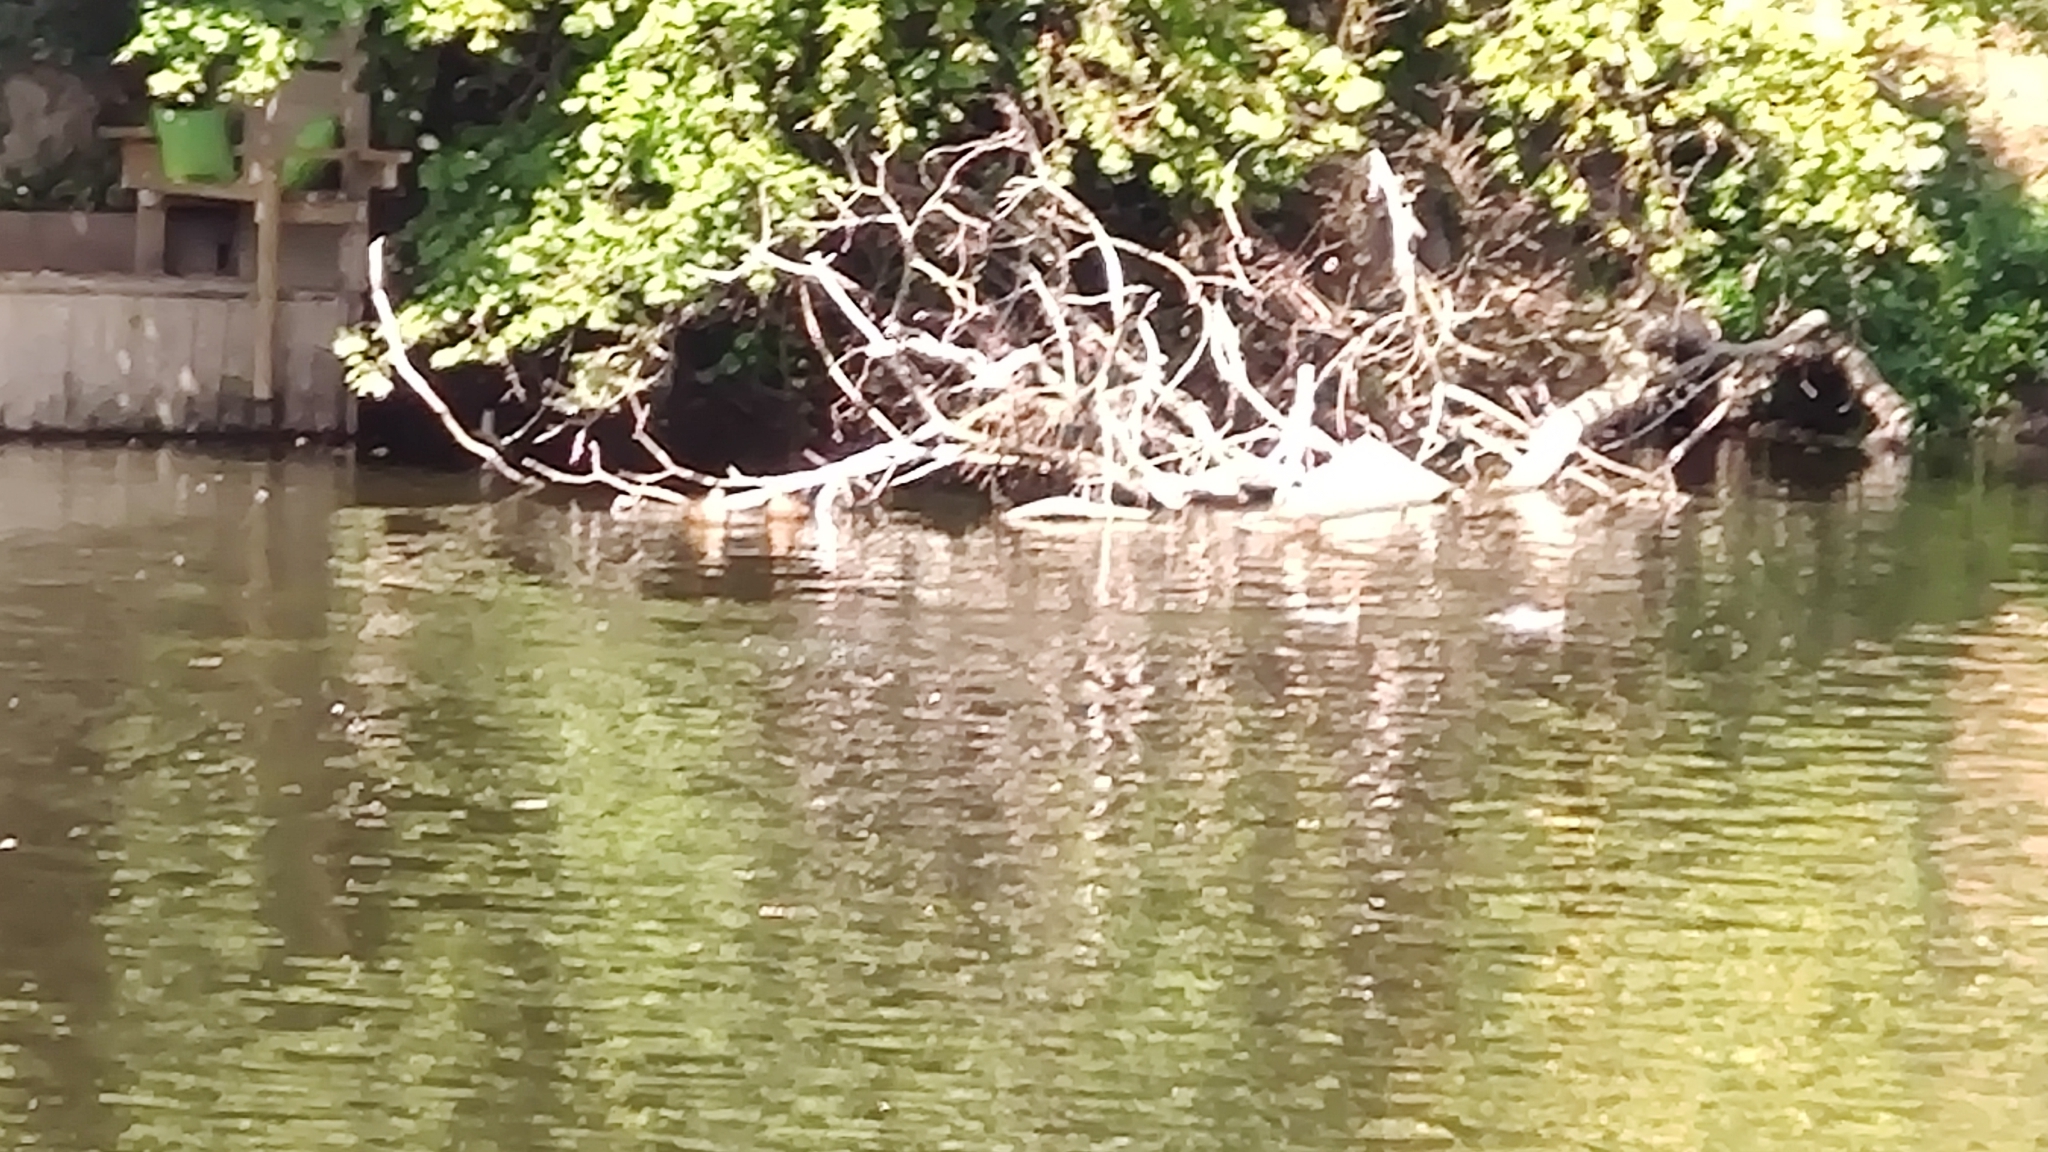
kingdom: Animalia
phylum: Chordata
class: Aves
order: Anseriformes
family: Anatidae
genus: Mergus
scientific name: Mergus merganser
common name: Common merganser
